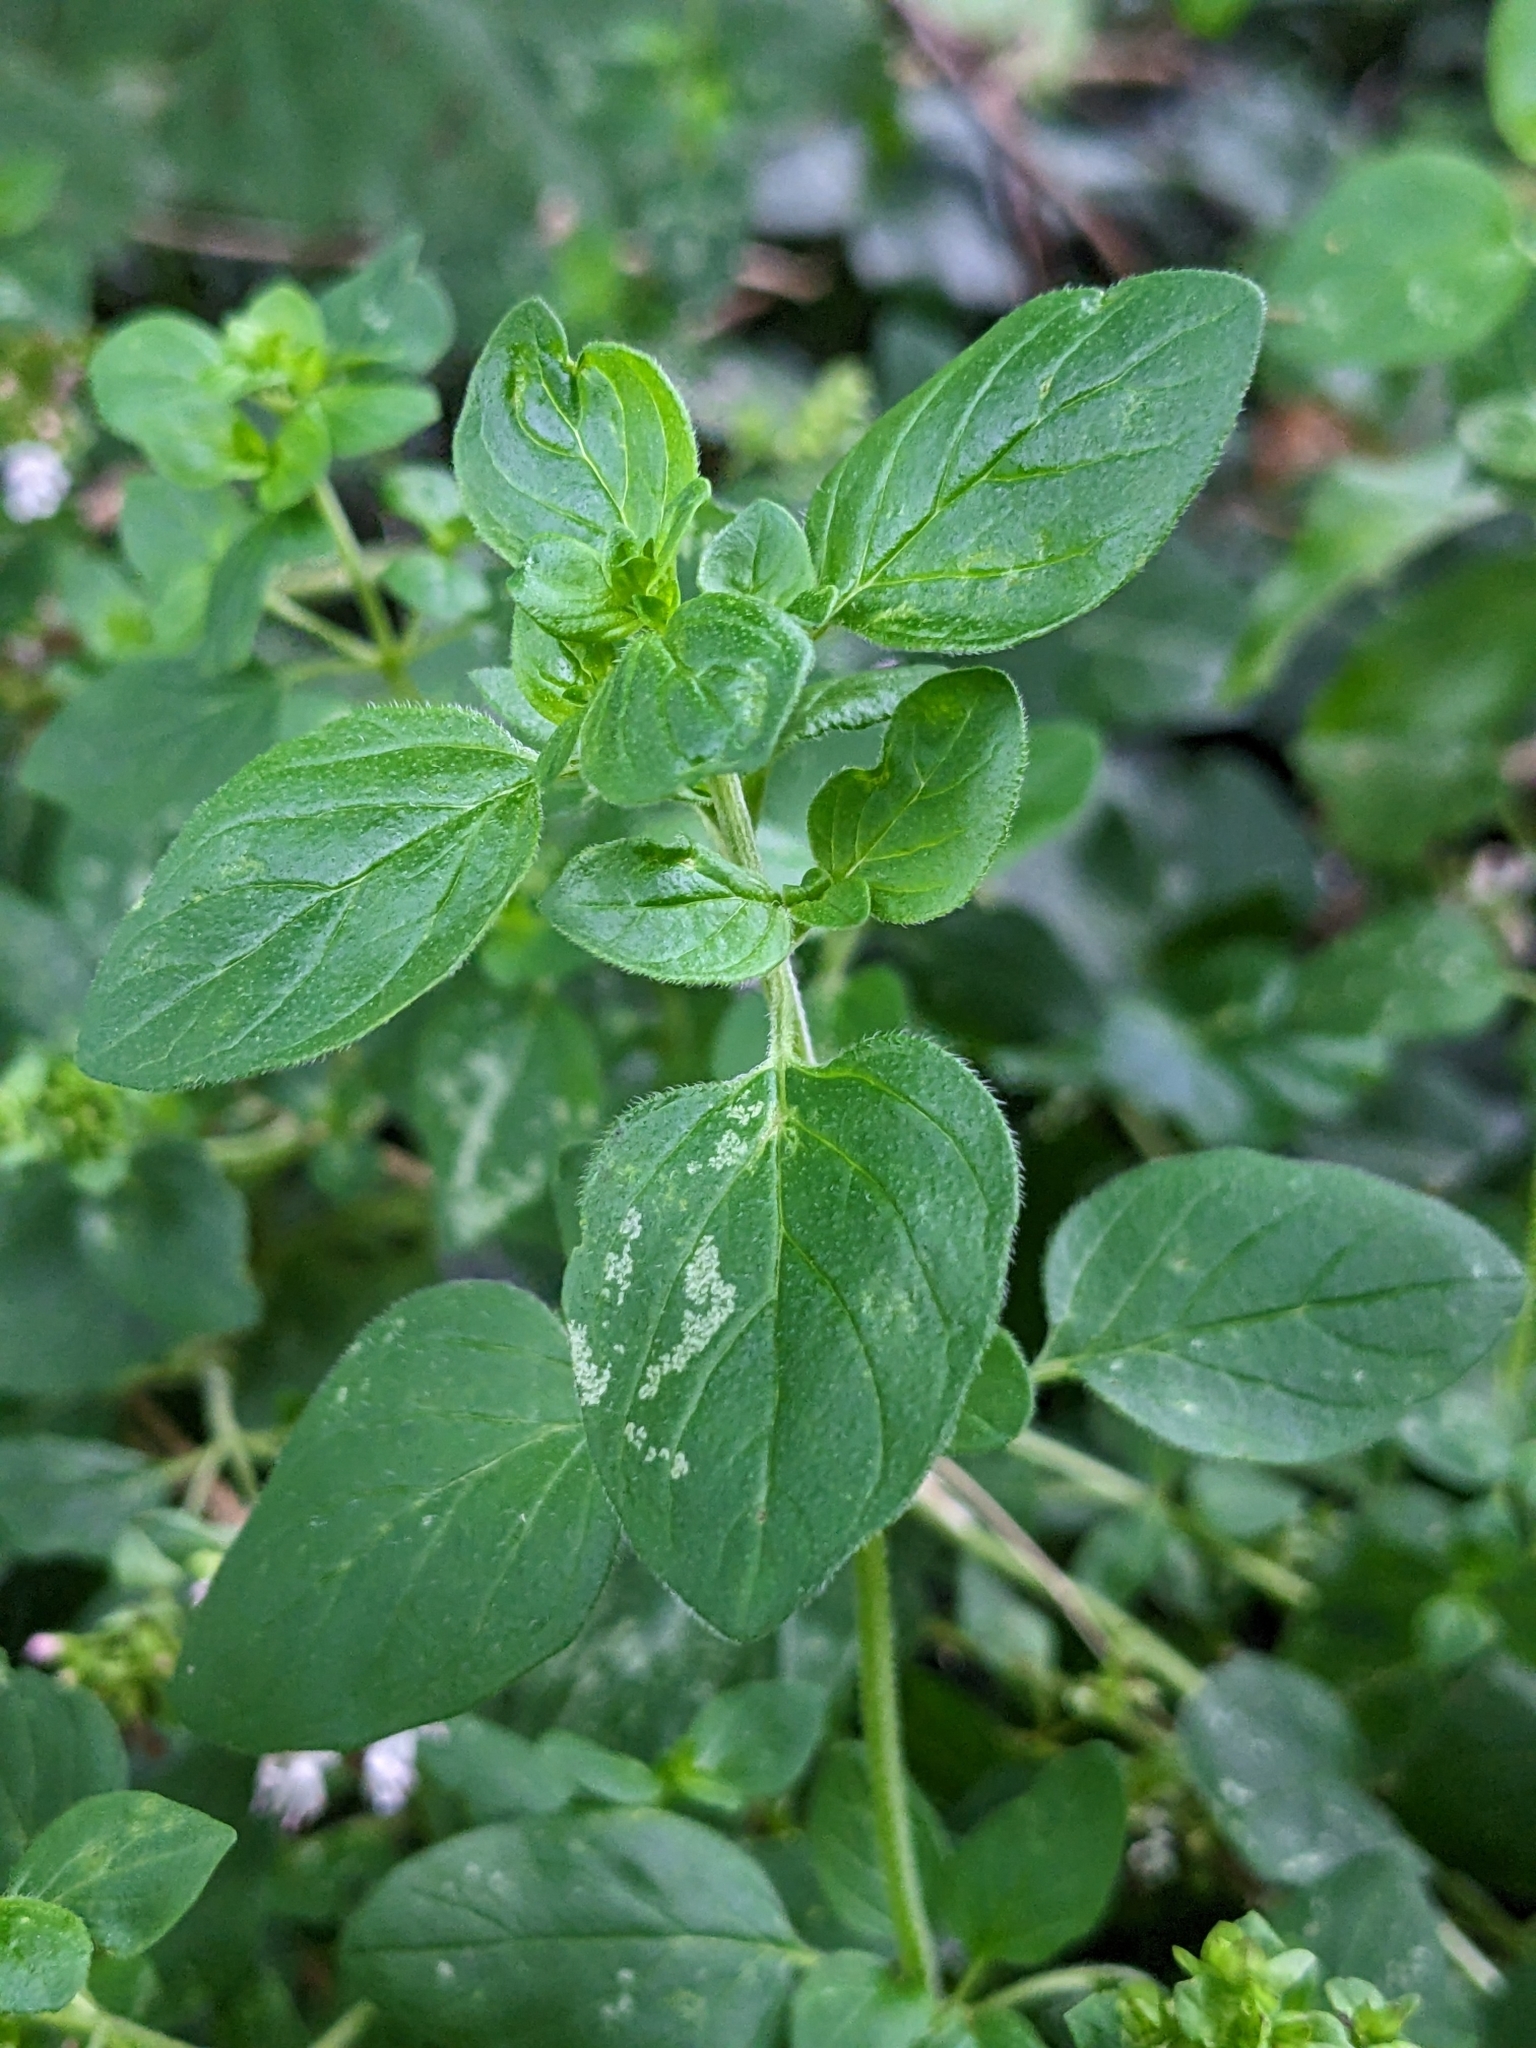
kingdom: Plantae
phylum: Tracheophyta
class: Magnoliopsida
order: Lamiales
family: Lamiaceae
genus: Origanum
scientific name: Origanum vulgare
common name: Wild marjoram
